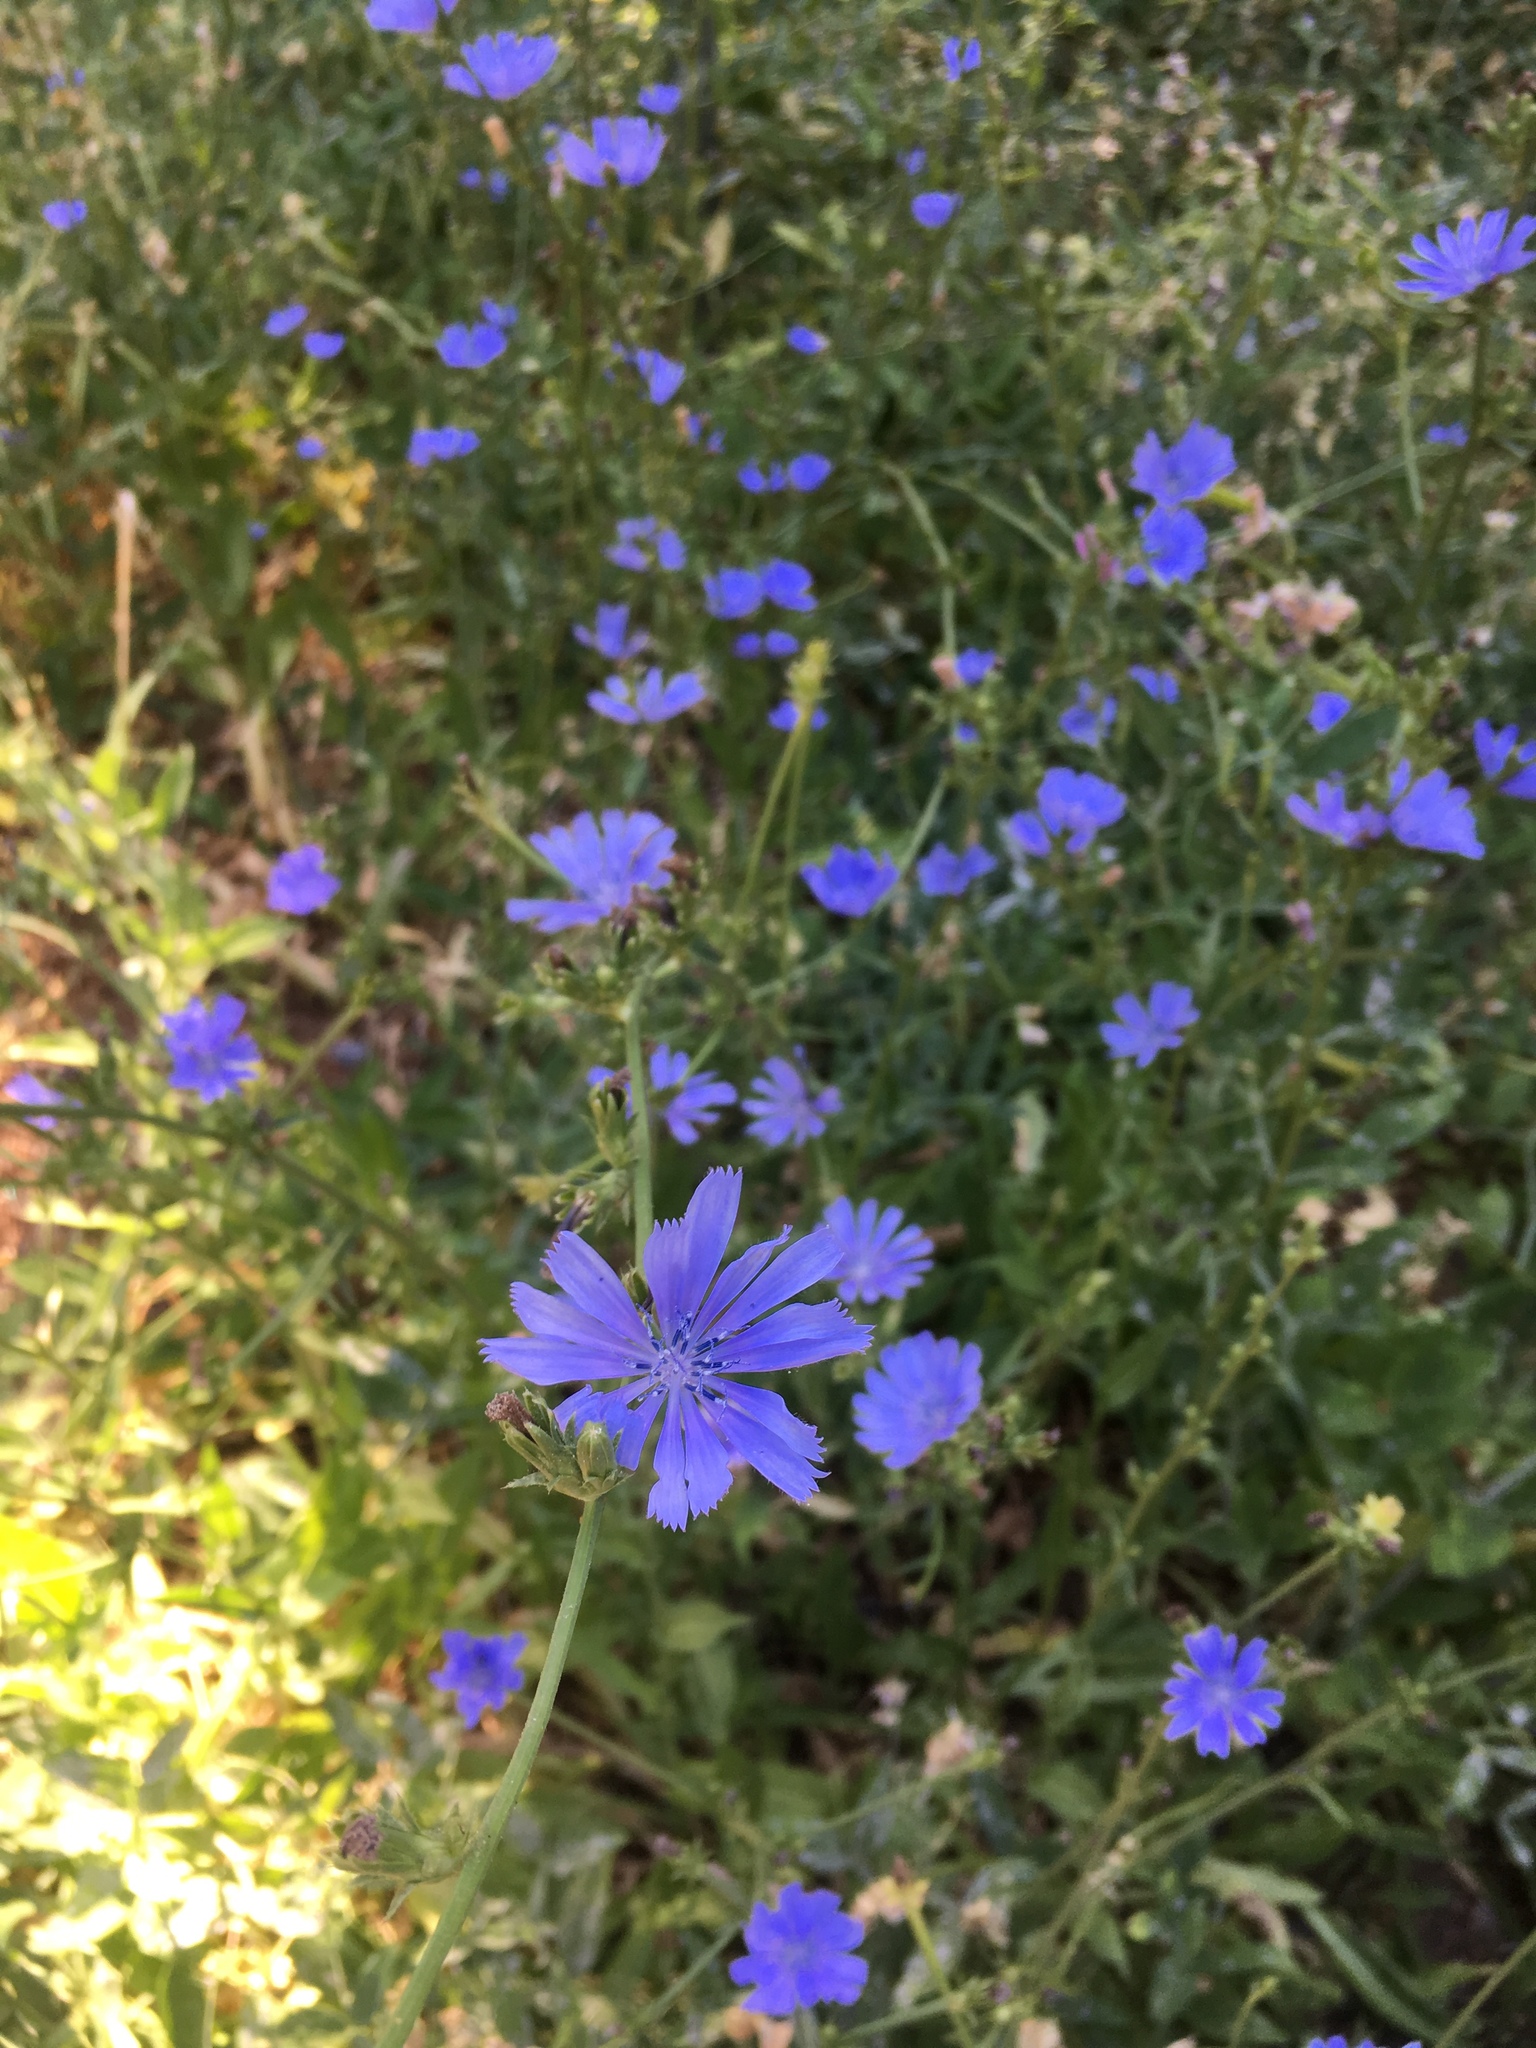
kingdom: Plantae
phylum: Tracheophyta
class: Magnoliopsida
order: Asterales
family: Asteraceae
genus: Cichorium
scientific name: Cichorium intybus
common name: Chicory
